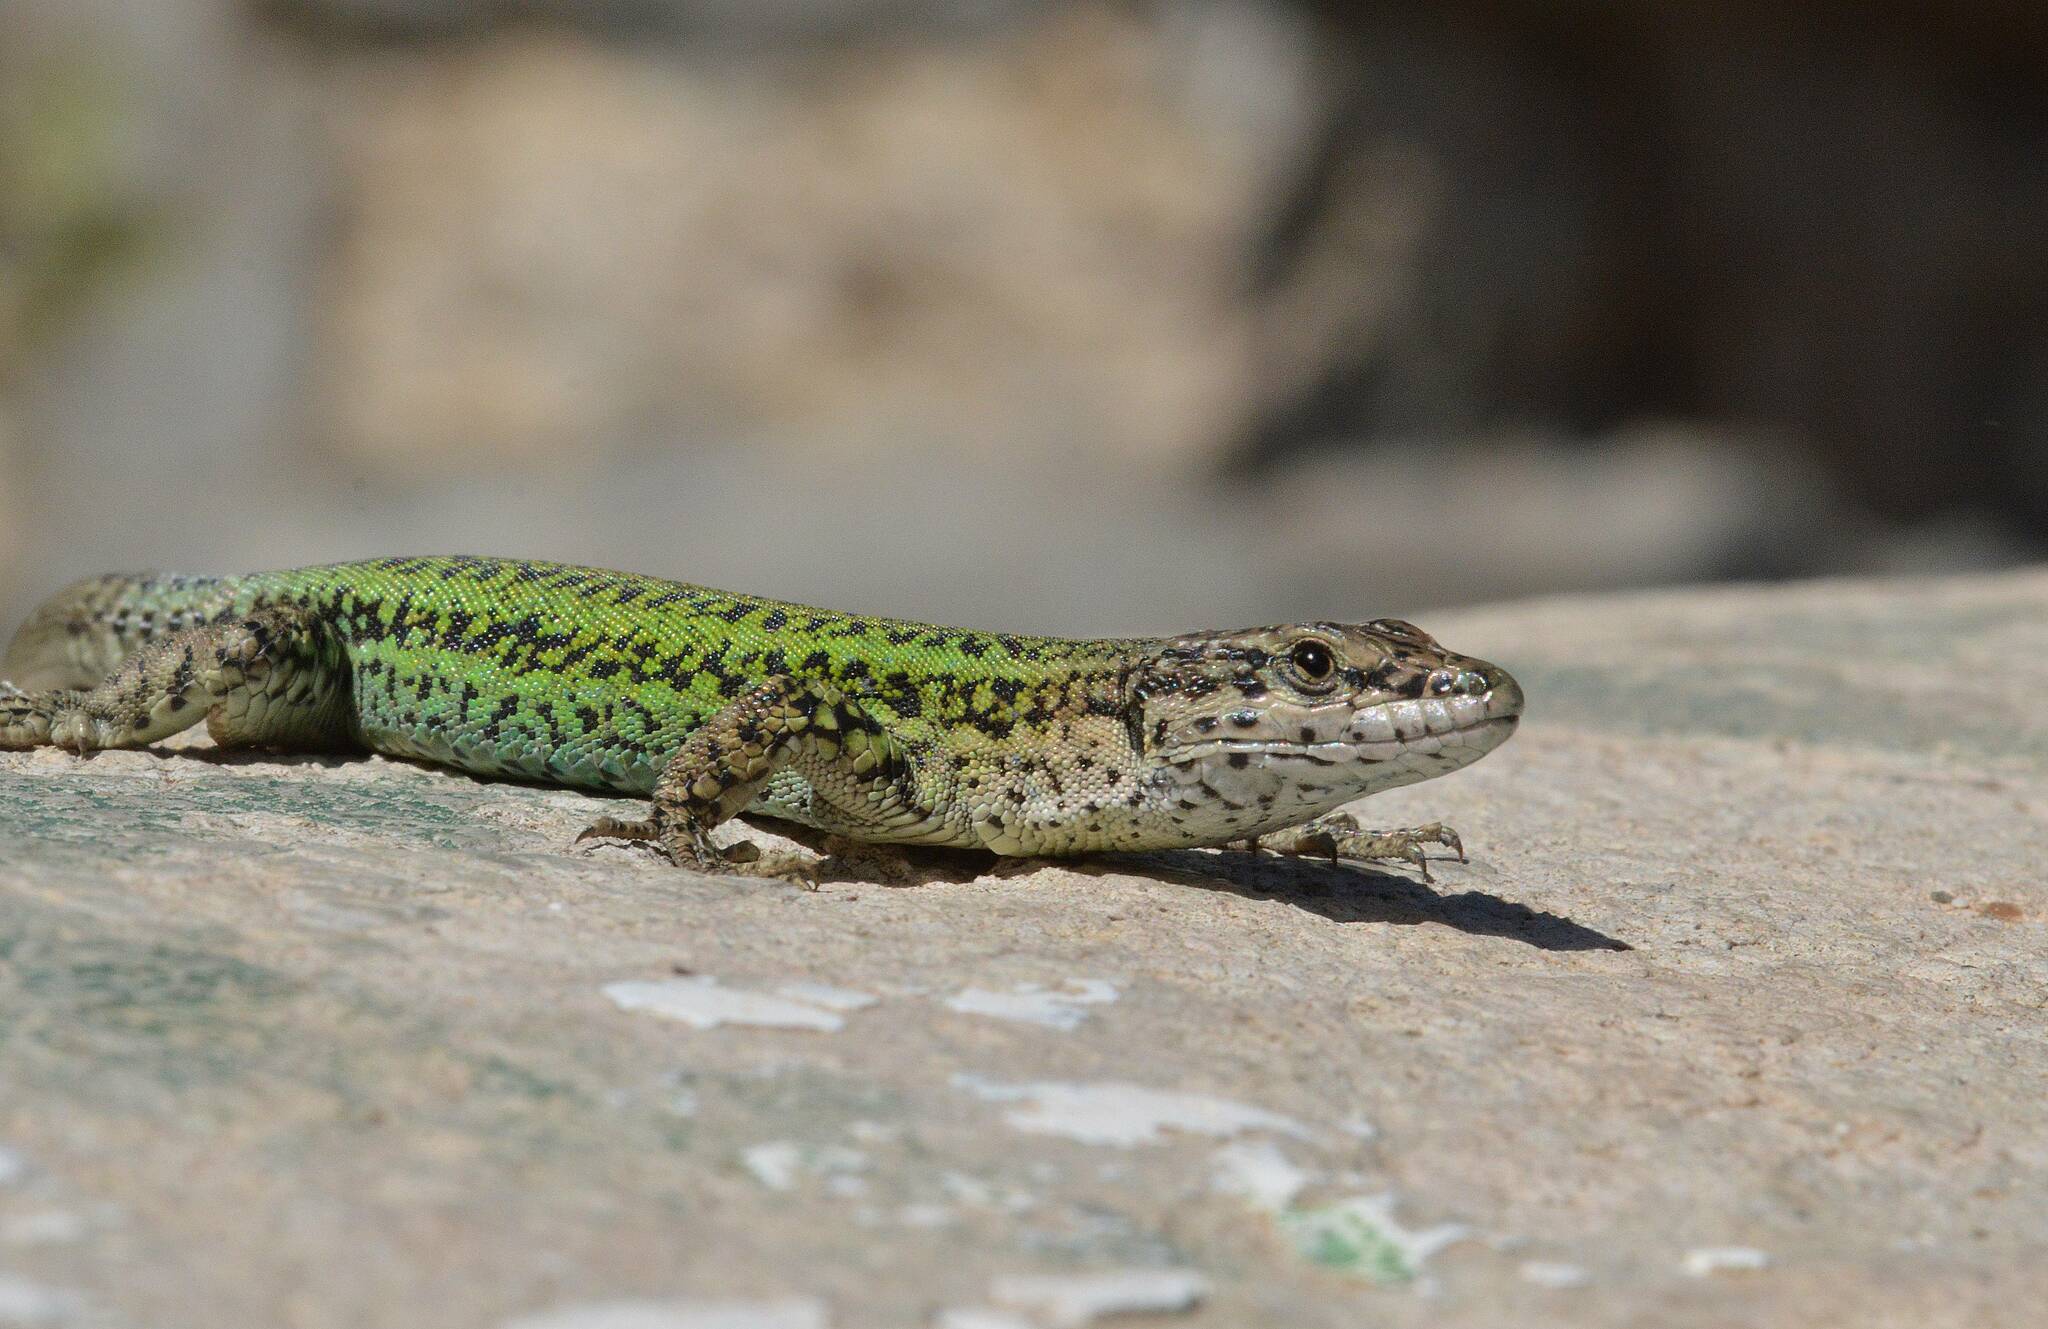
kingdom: Animalia
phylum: Chordata
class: Squamata
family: Lacertidae
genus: Podarcis
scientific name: Podarcis vaucheri
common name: Vaucher's wall lizard
